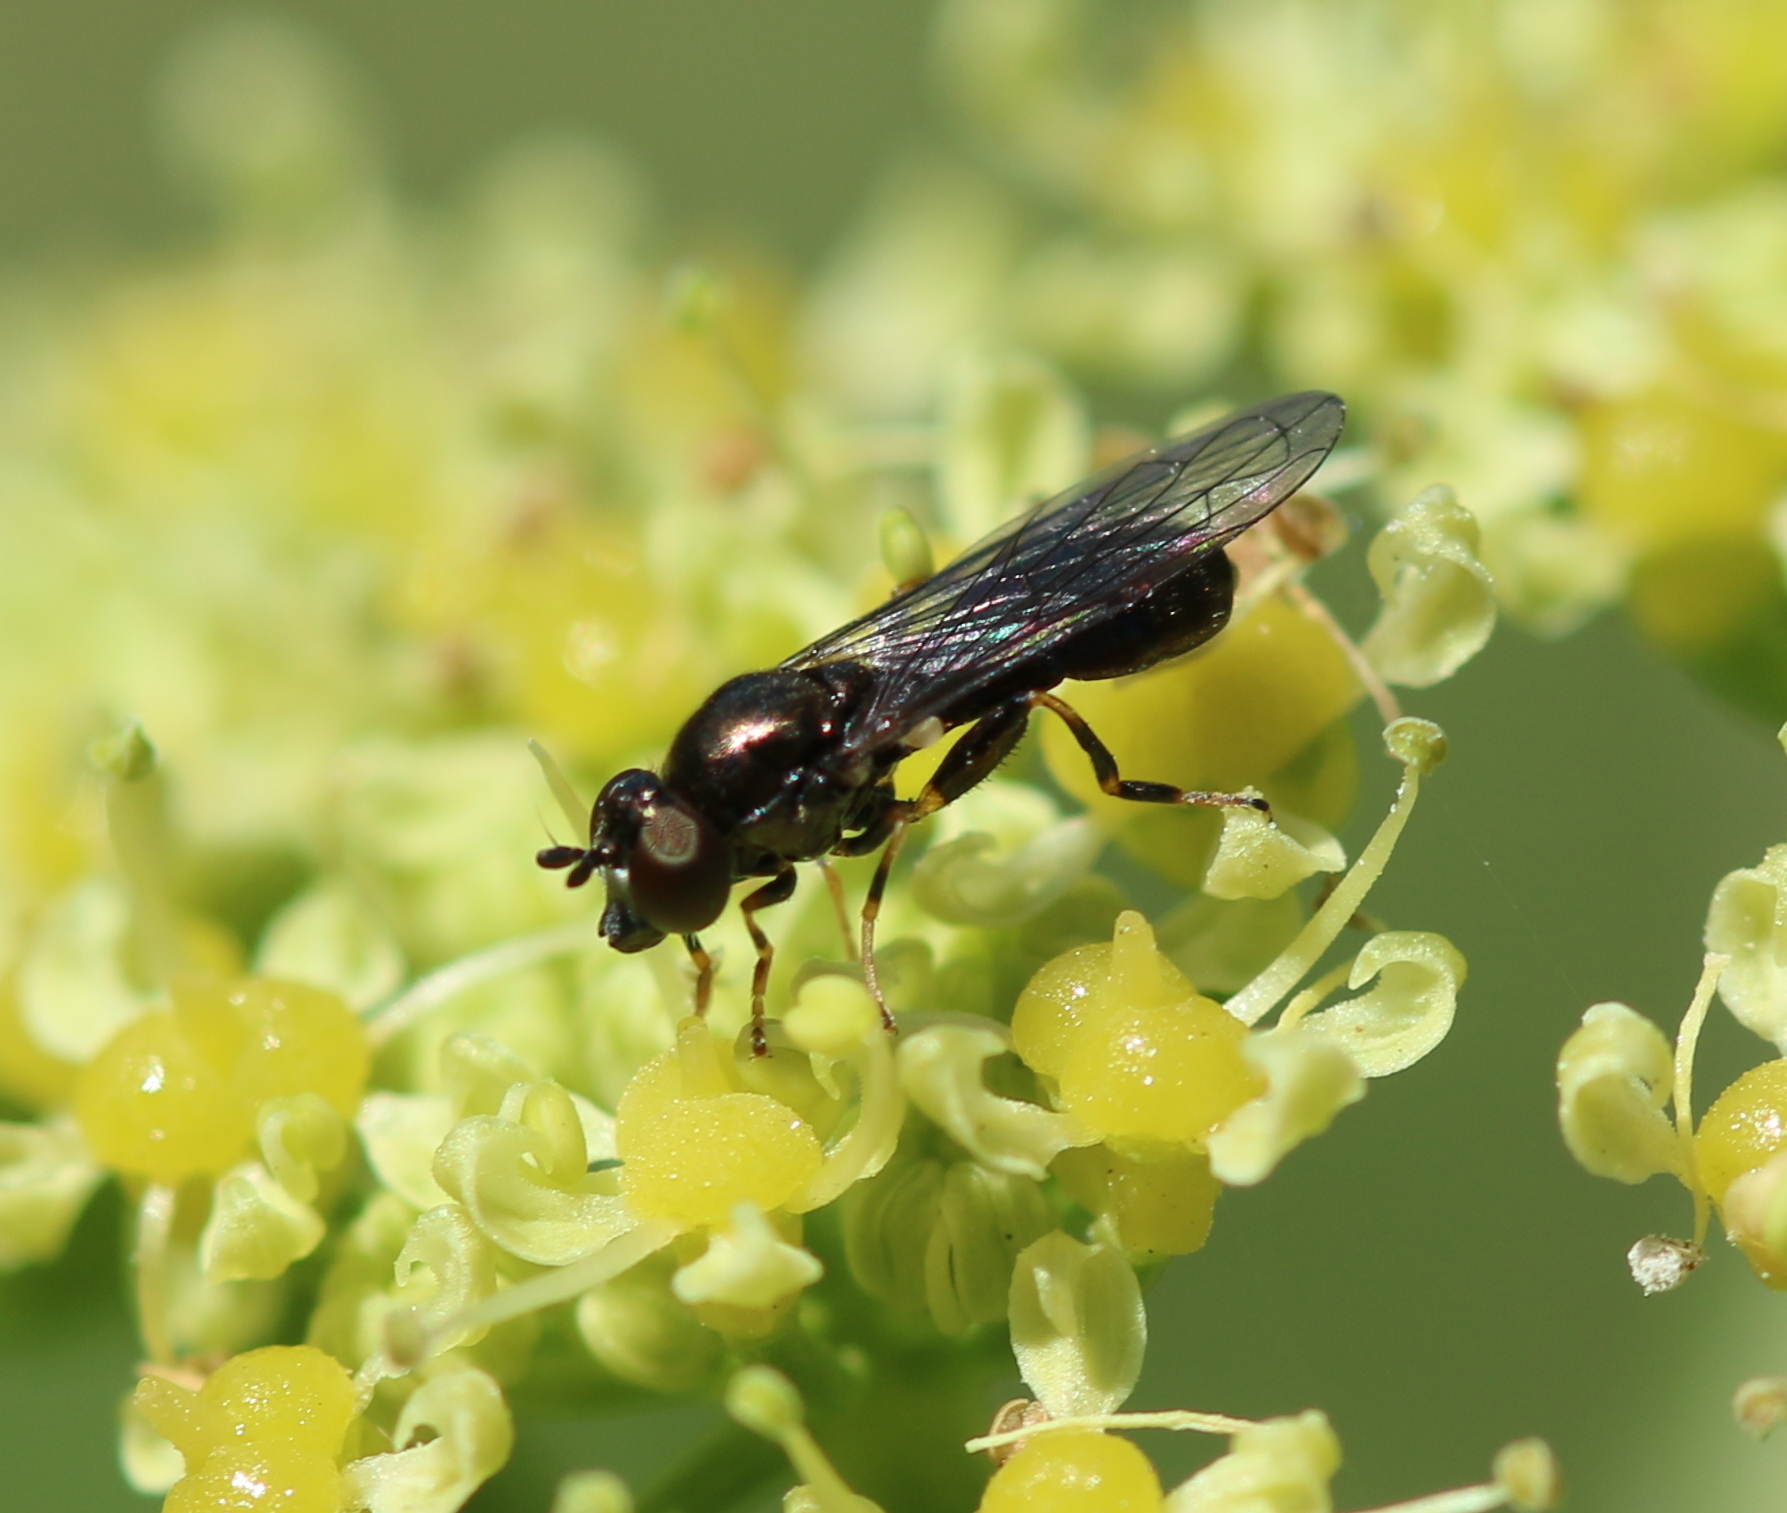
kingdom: Animalia
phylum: Arthropoda
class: Insecta
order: Diptera
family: Syrphidae
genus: Neoascia
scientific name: Neoascia
